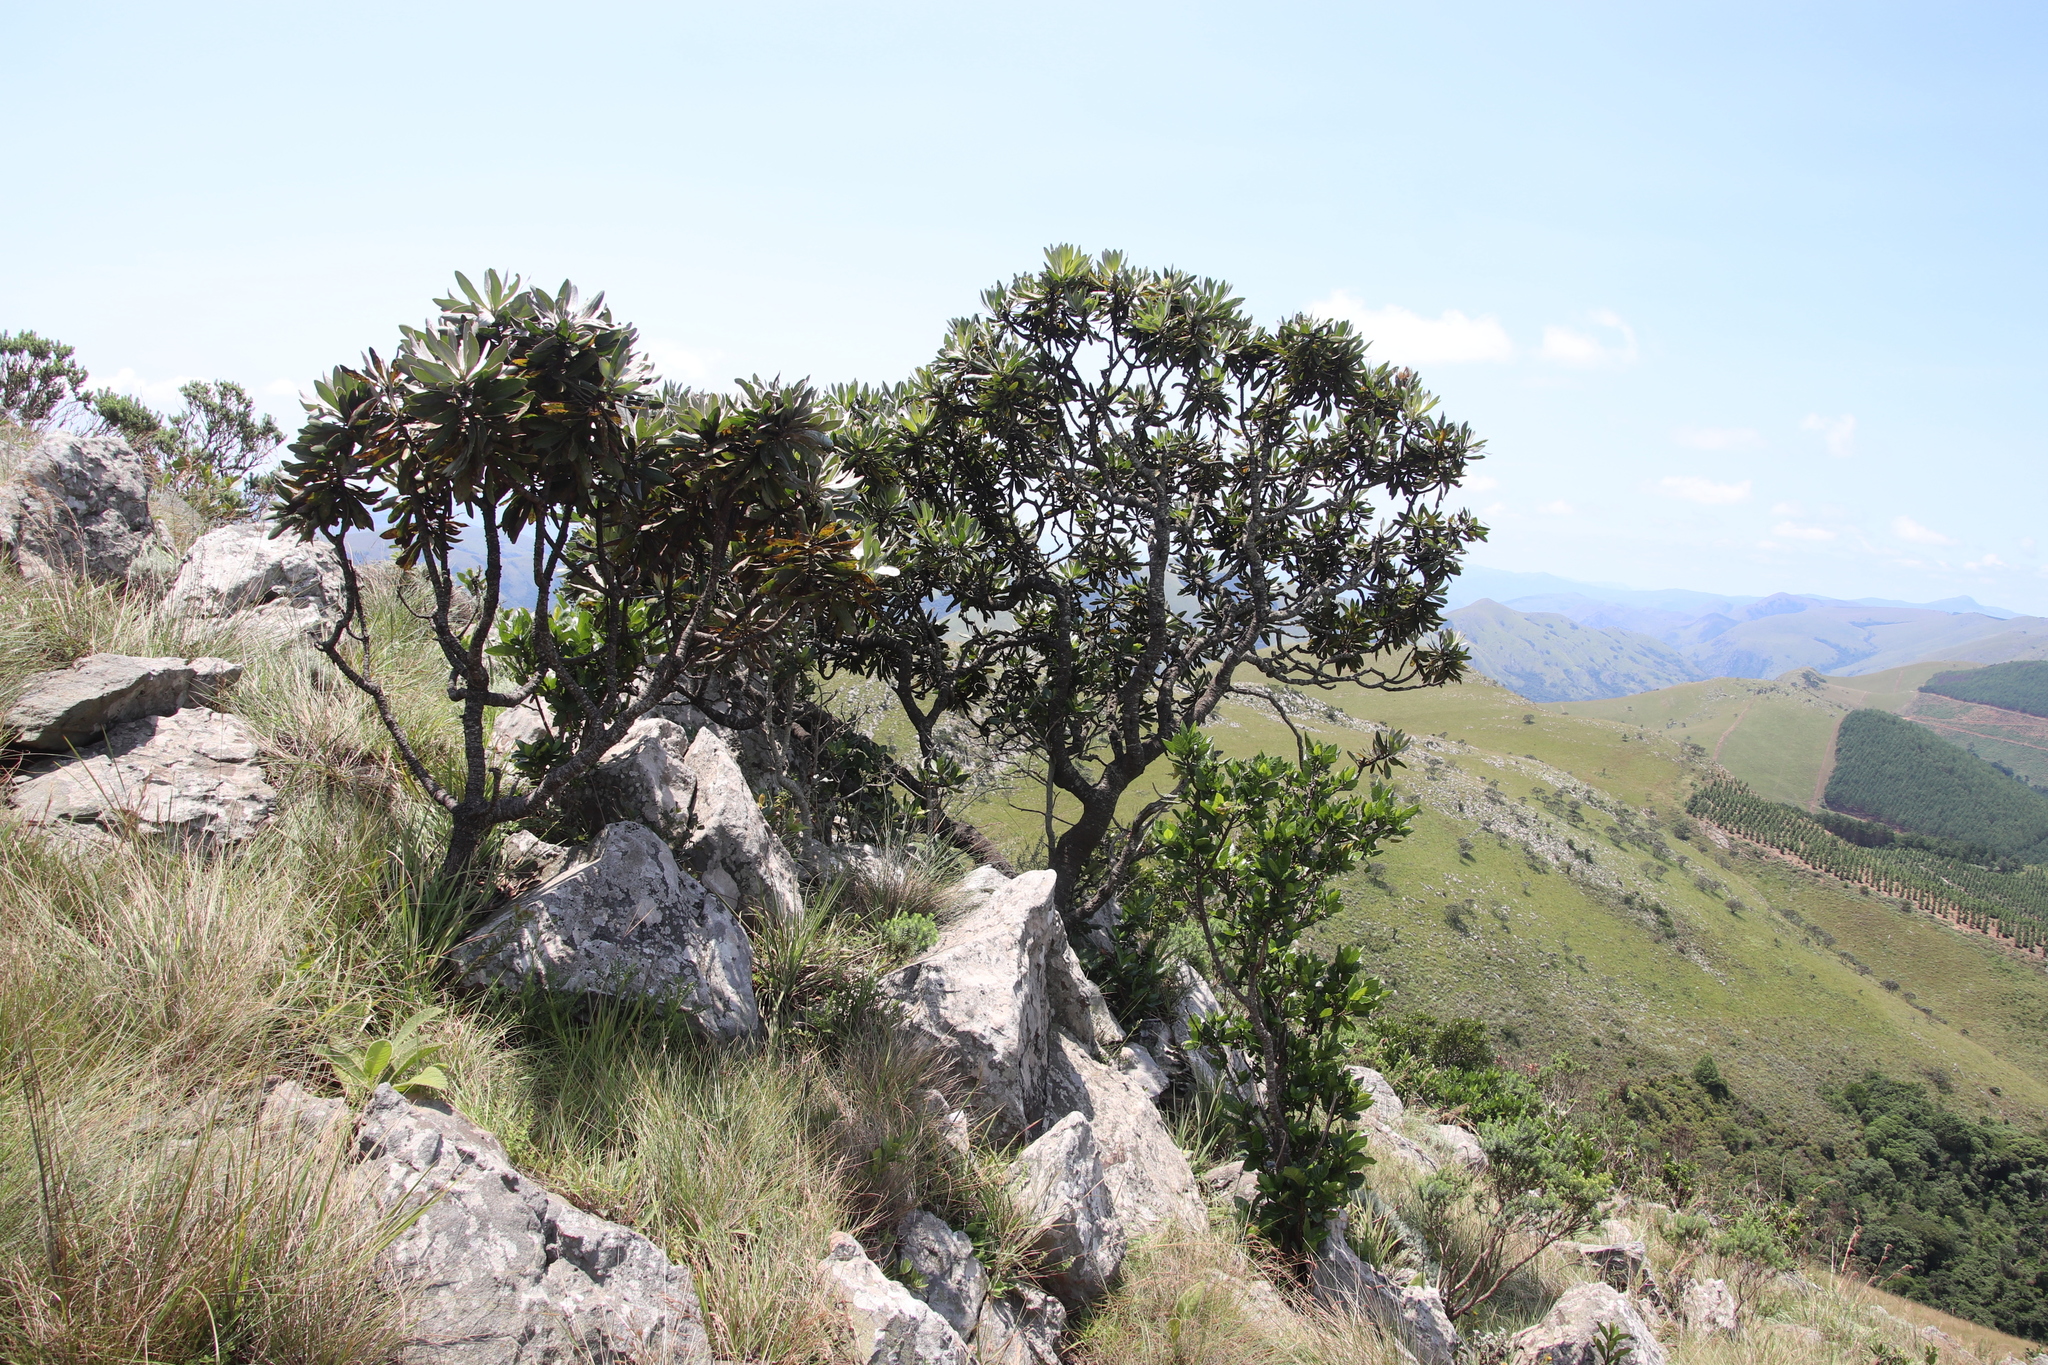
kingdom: Plantae
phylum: Tracheophyta
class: Magnoliopsida
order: Proteales
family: Proteaceae
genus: Protea
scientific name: Protea roupelliae
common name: Silver sugarbush
